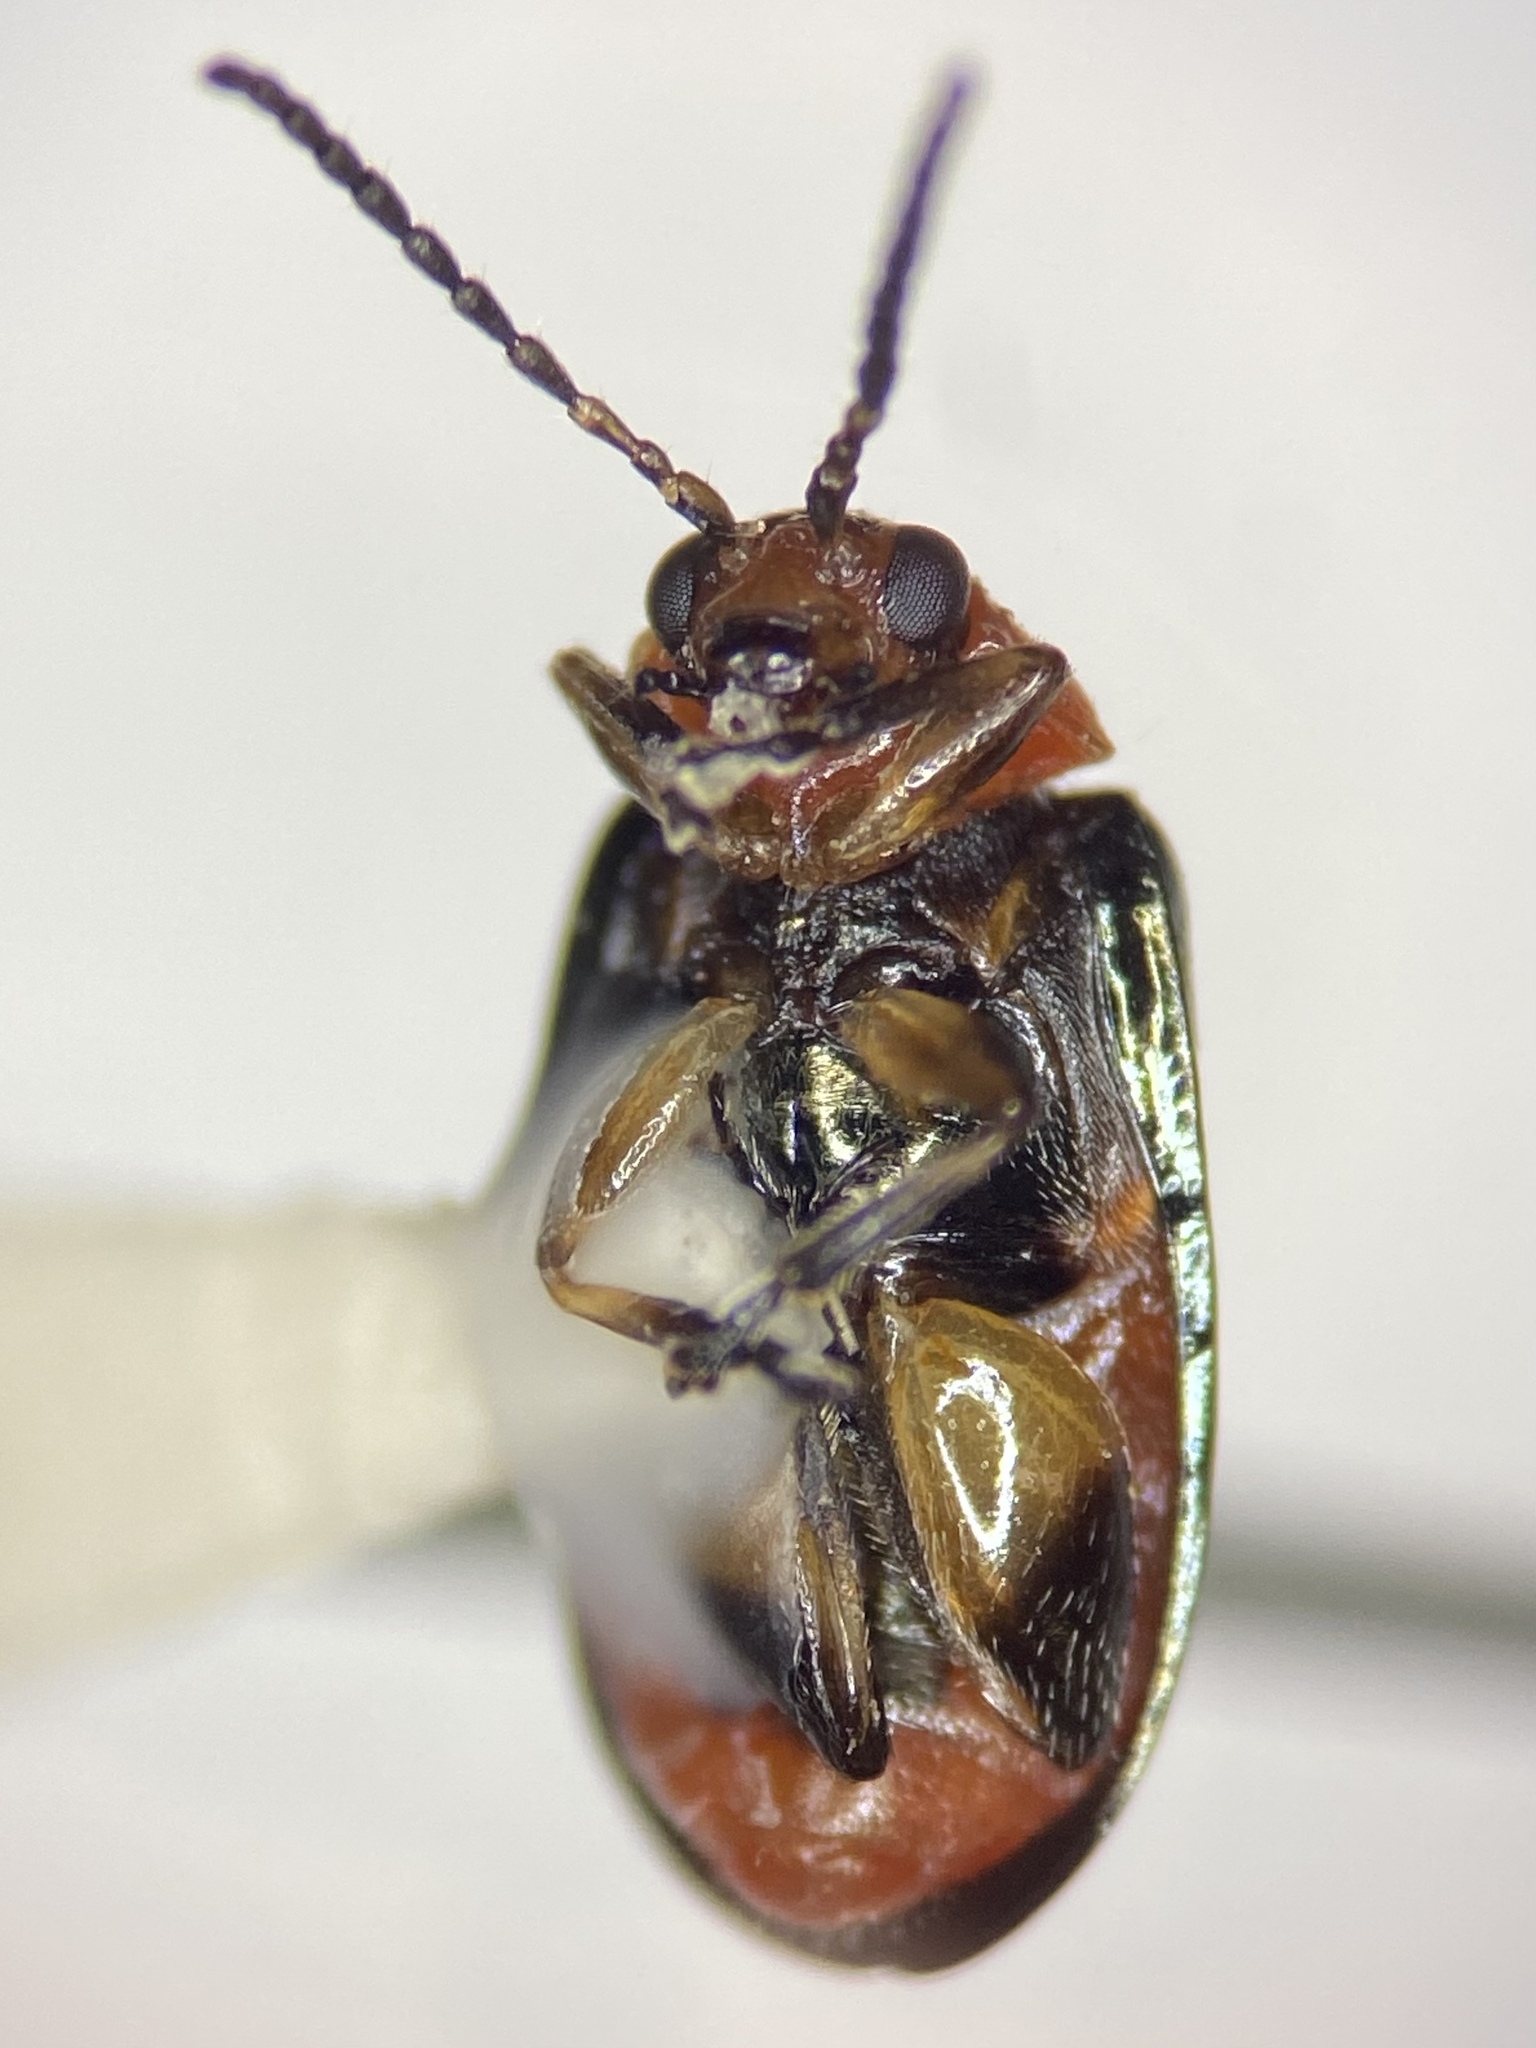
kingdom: Animalia
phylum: Arthropoda
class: Insecta
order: Coleoptera
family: Chrysomelidae
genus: Disonycha
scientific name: Disonycha politula
